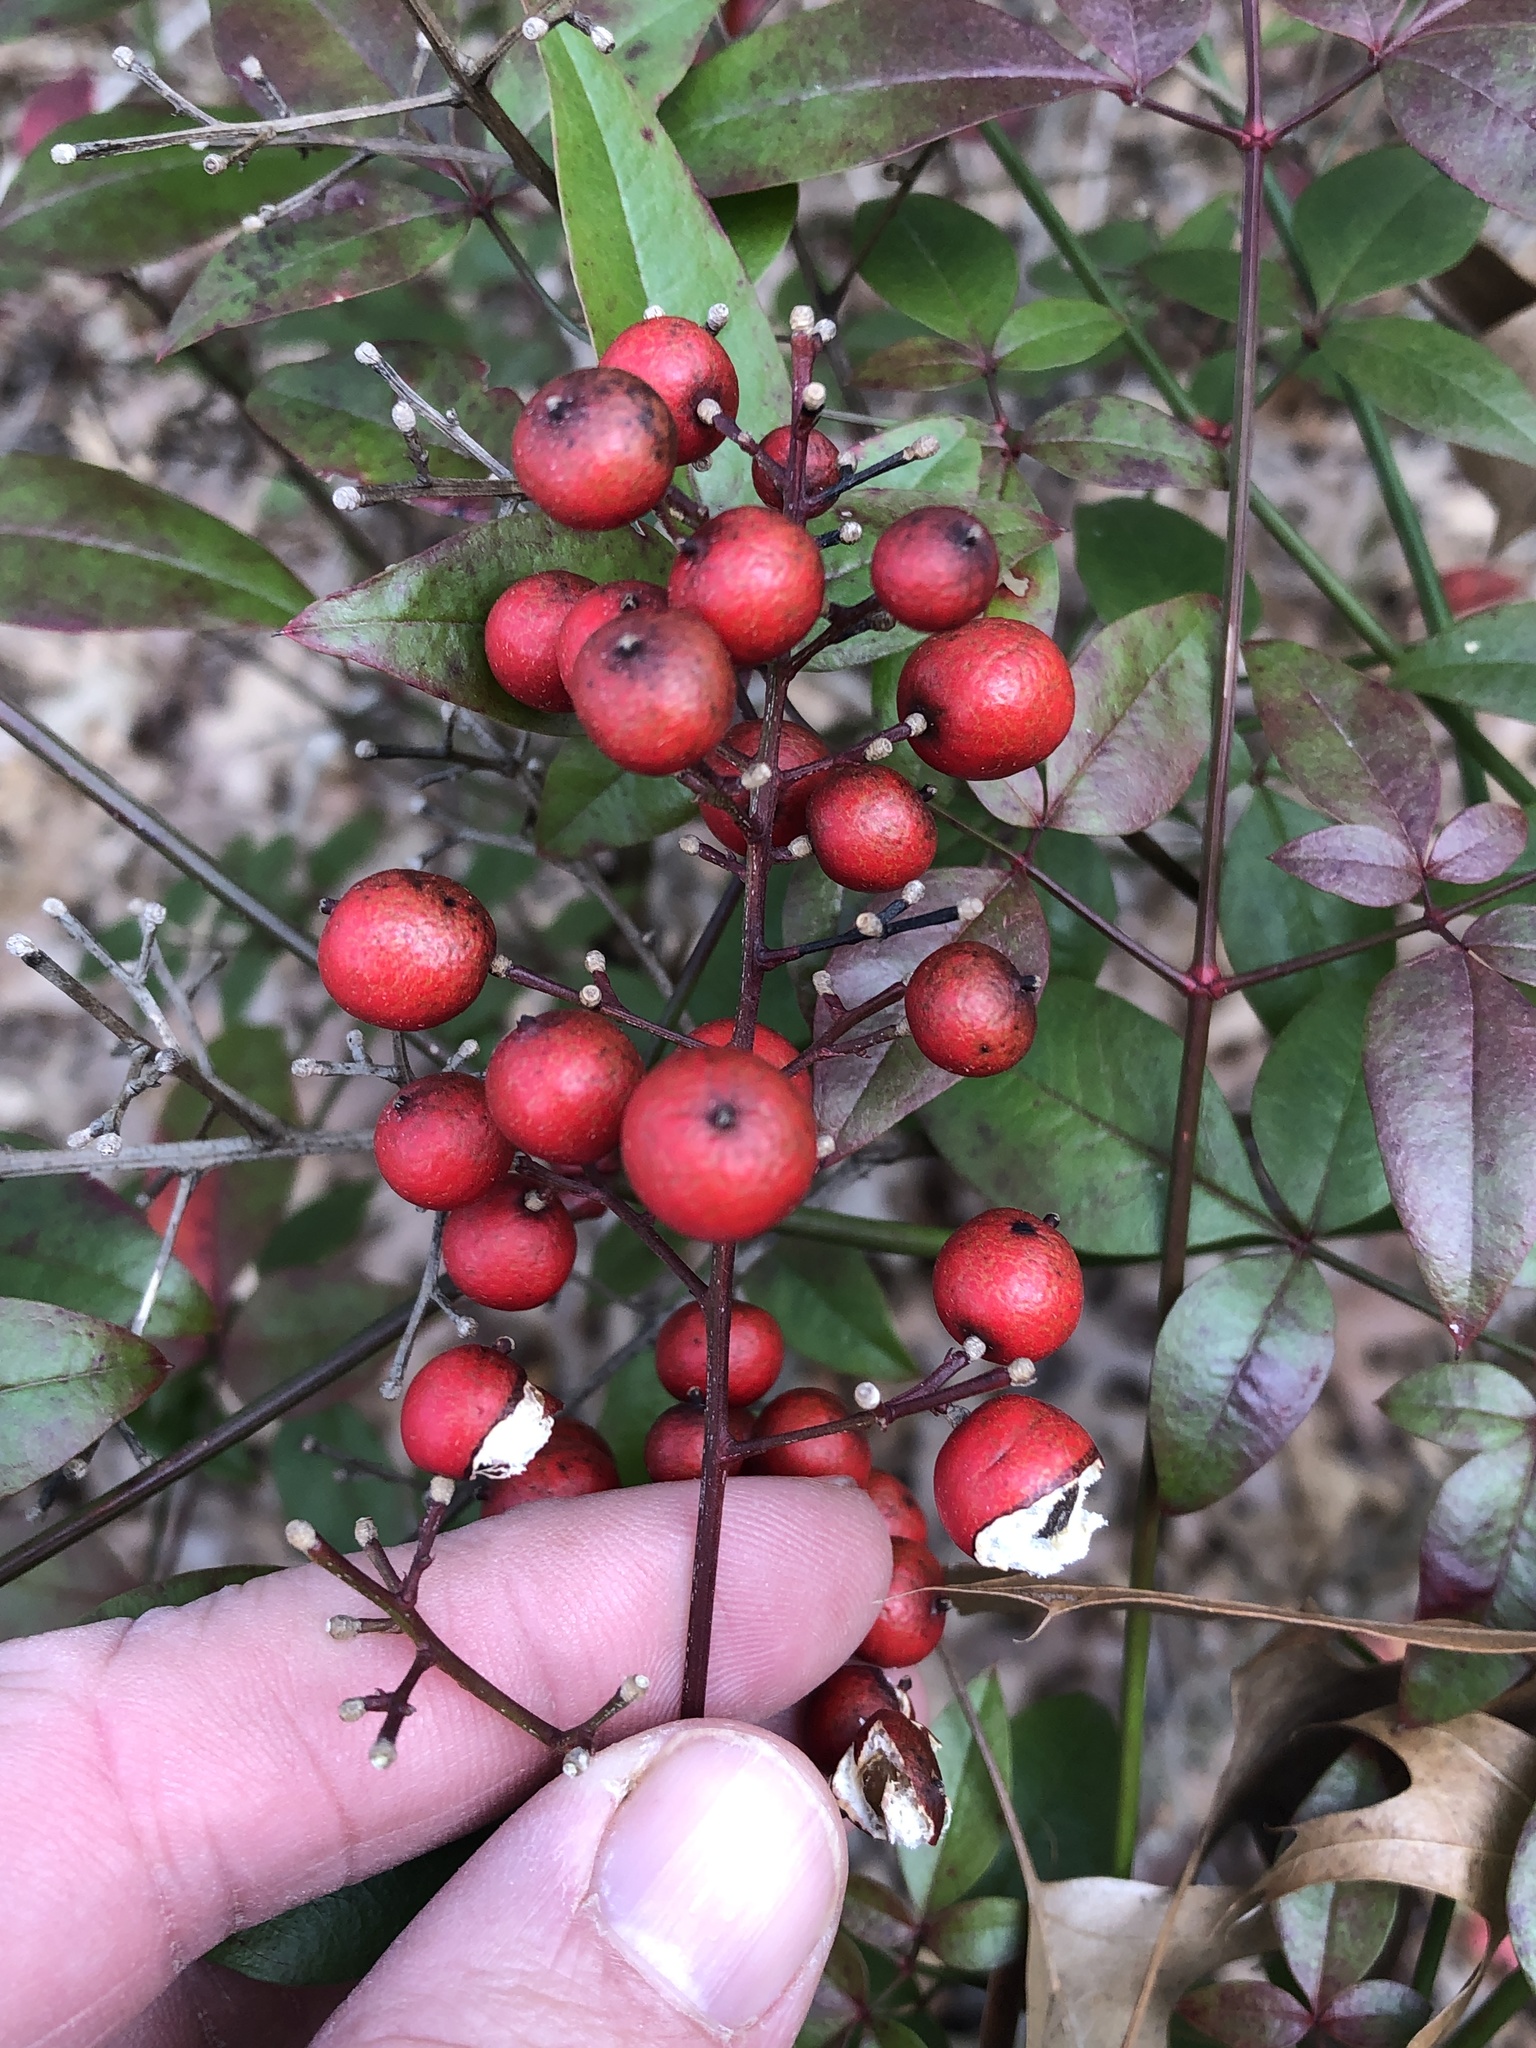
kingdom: Plantae
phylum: Tracheophyta
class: Magnoliopsida
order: Ranunculales
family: Berberidaceae
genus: Nandina
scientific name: Nandina domestica
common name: Sacred bamboo
